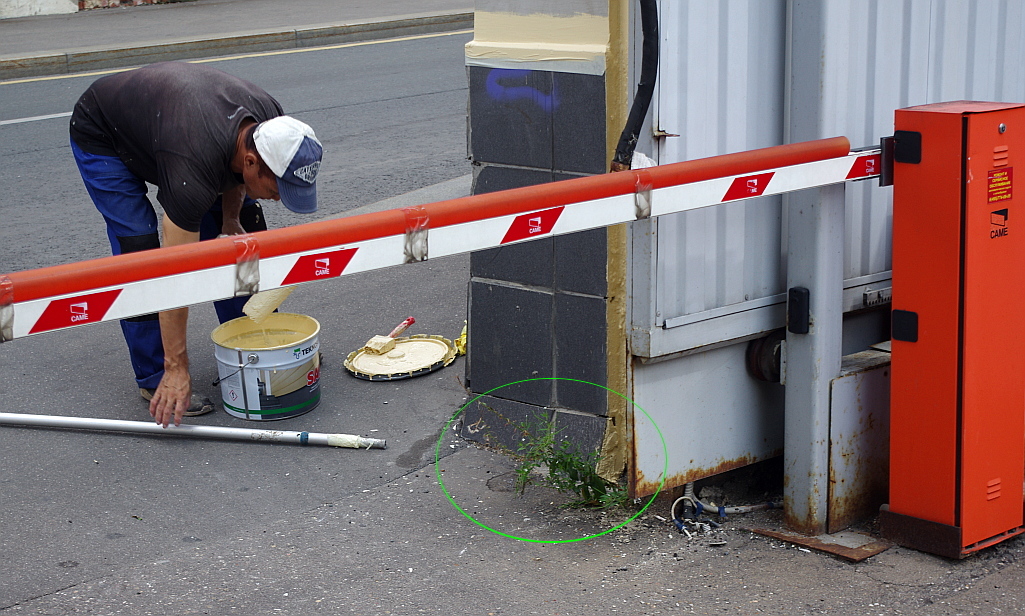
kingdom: Plantae
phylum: Tracheophyta
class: Magnoliopsida
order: Myrtales
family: Onagraceae
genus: Epilobium
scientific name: Epilobium pseudorubescens
